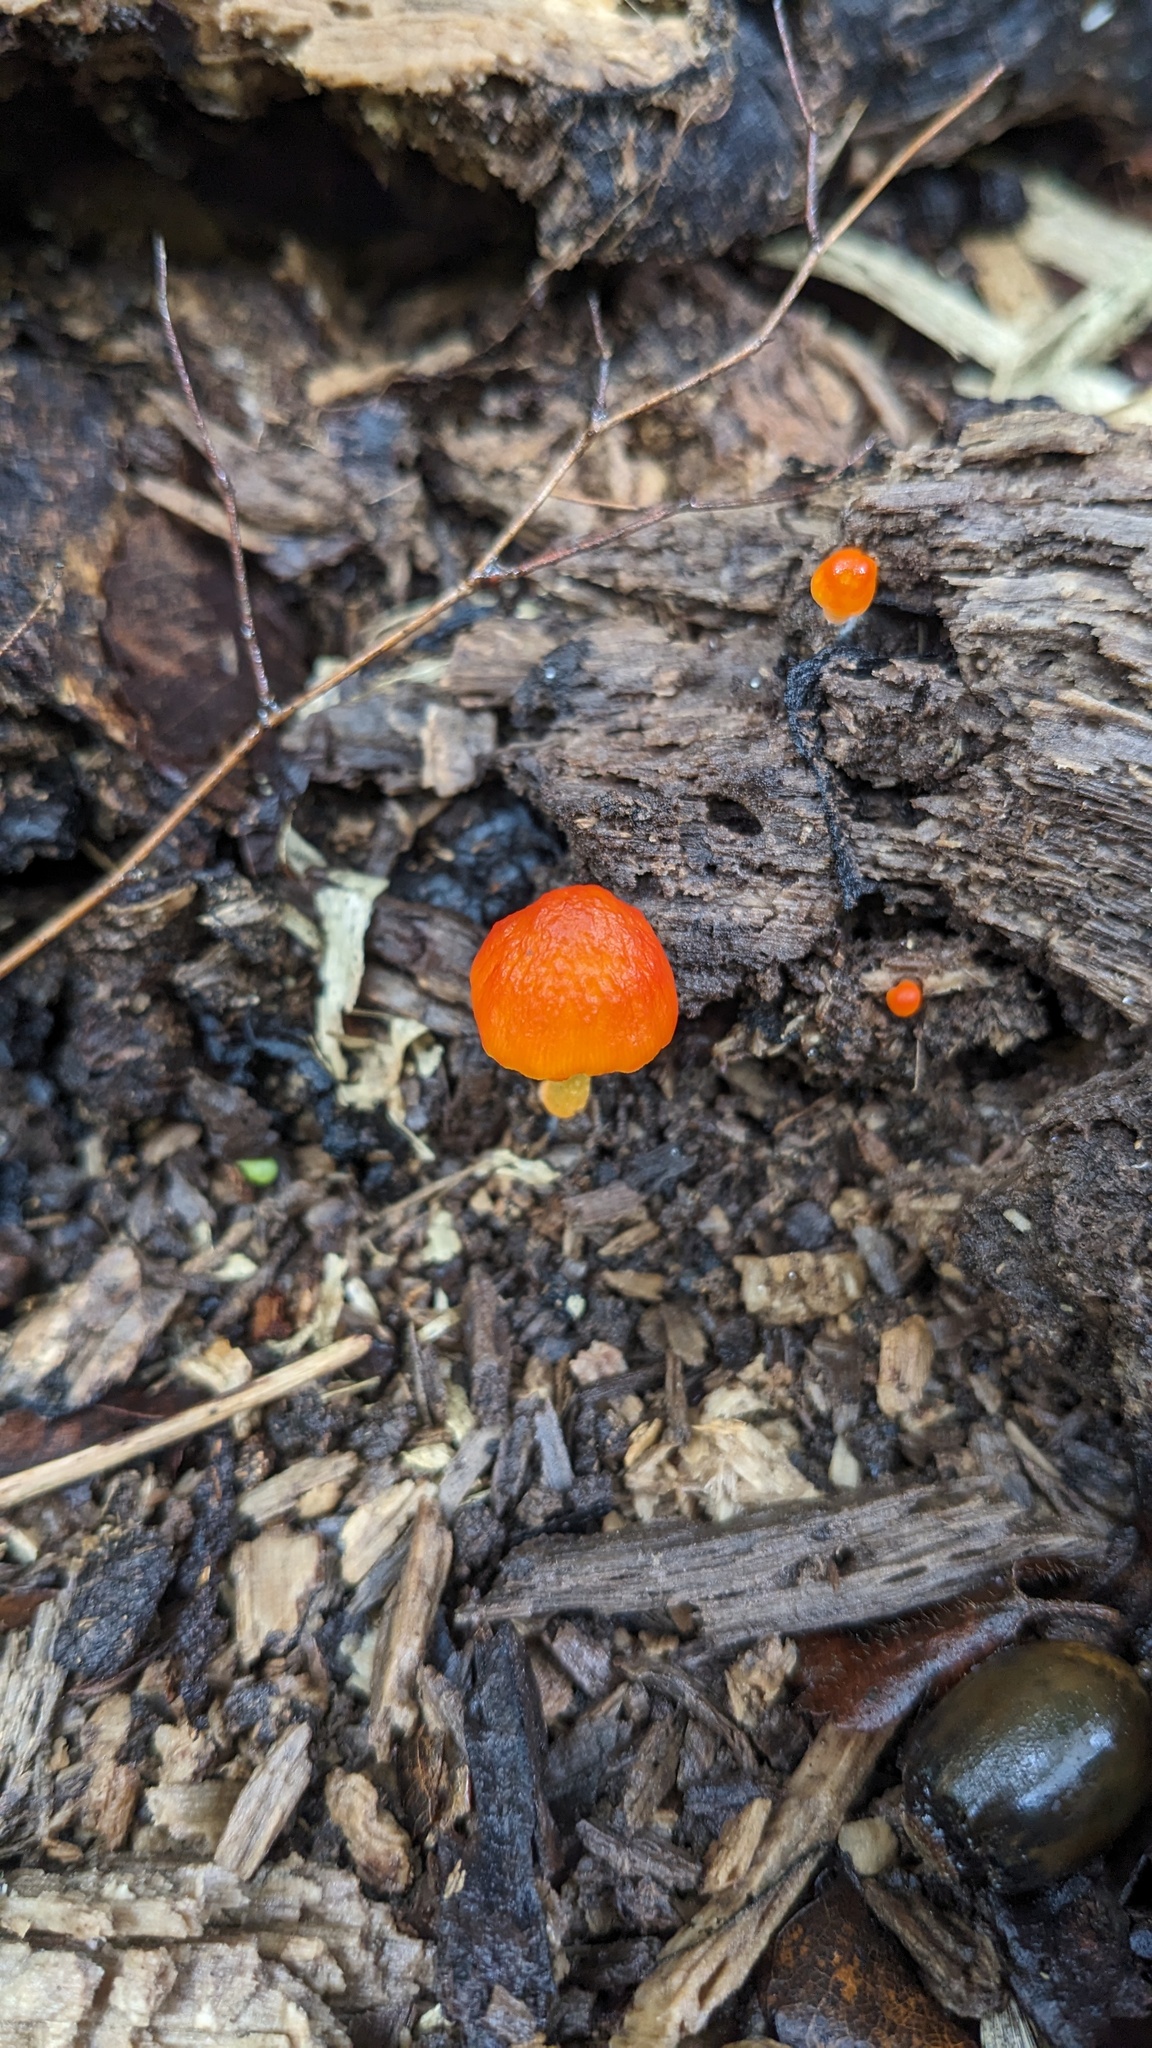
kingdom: Fungi
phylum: Basidiomycota
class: Agaricomycetes
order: Agaricales
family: Pluteaceae
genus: Pluteus
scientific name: Pluteus aurantiorugosus
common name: Flame shield
